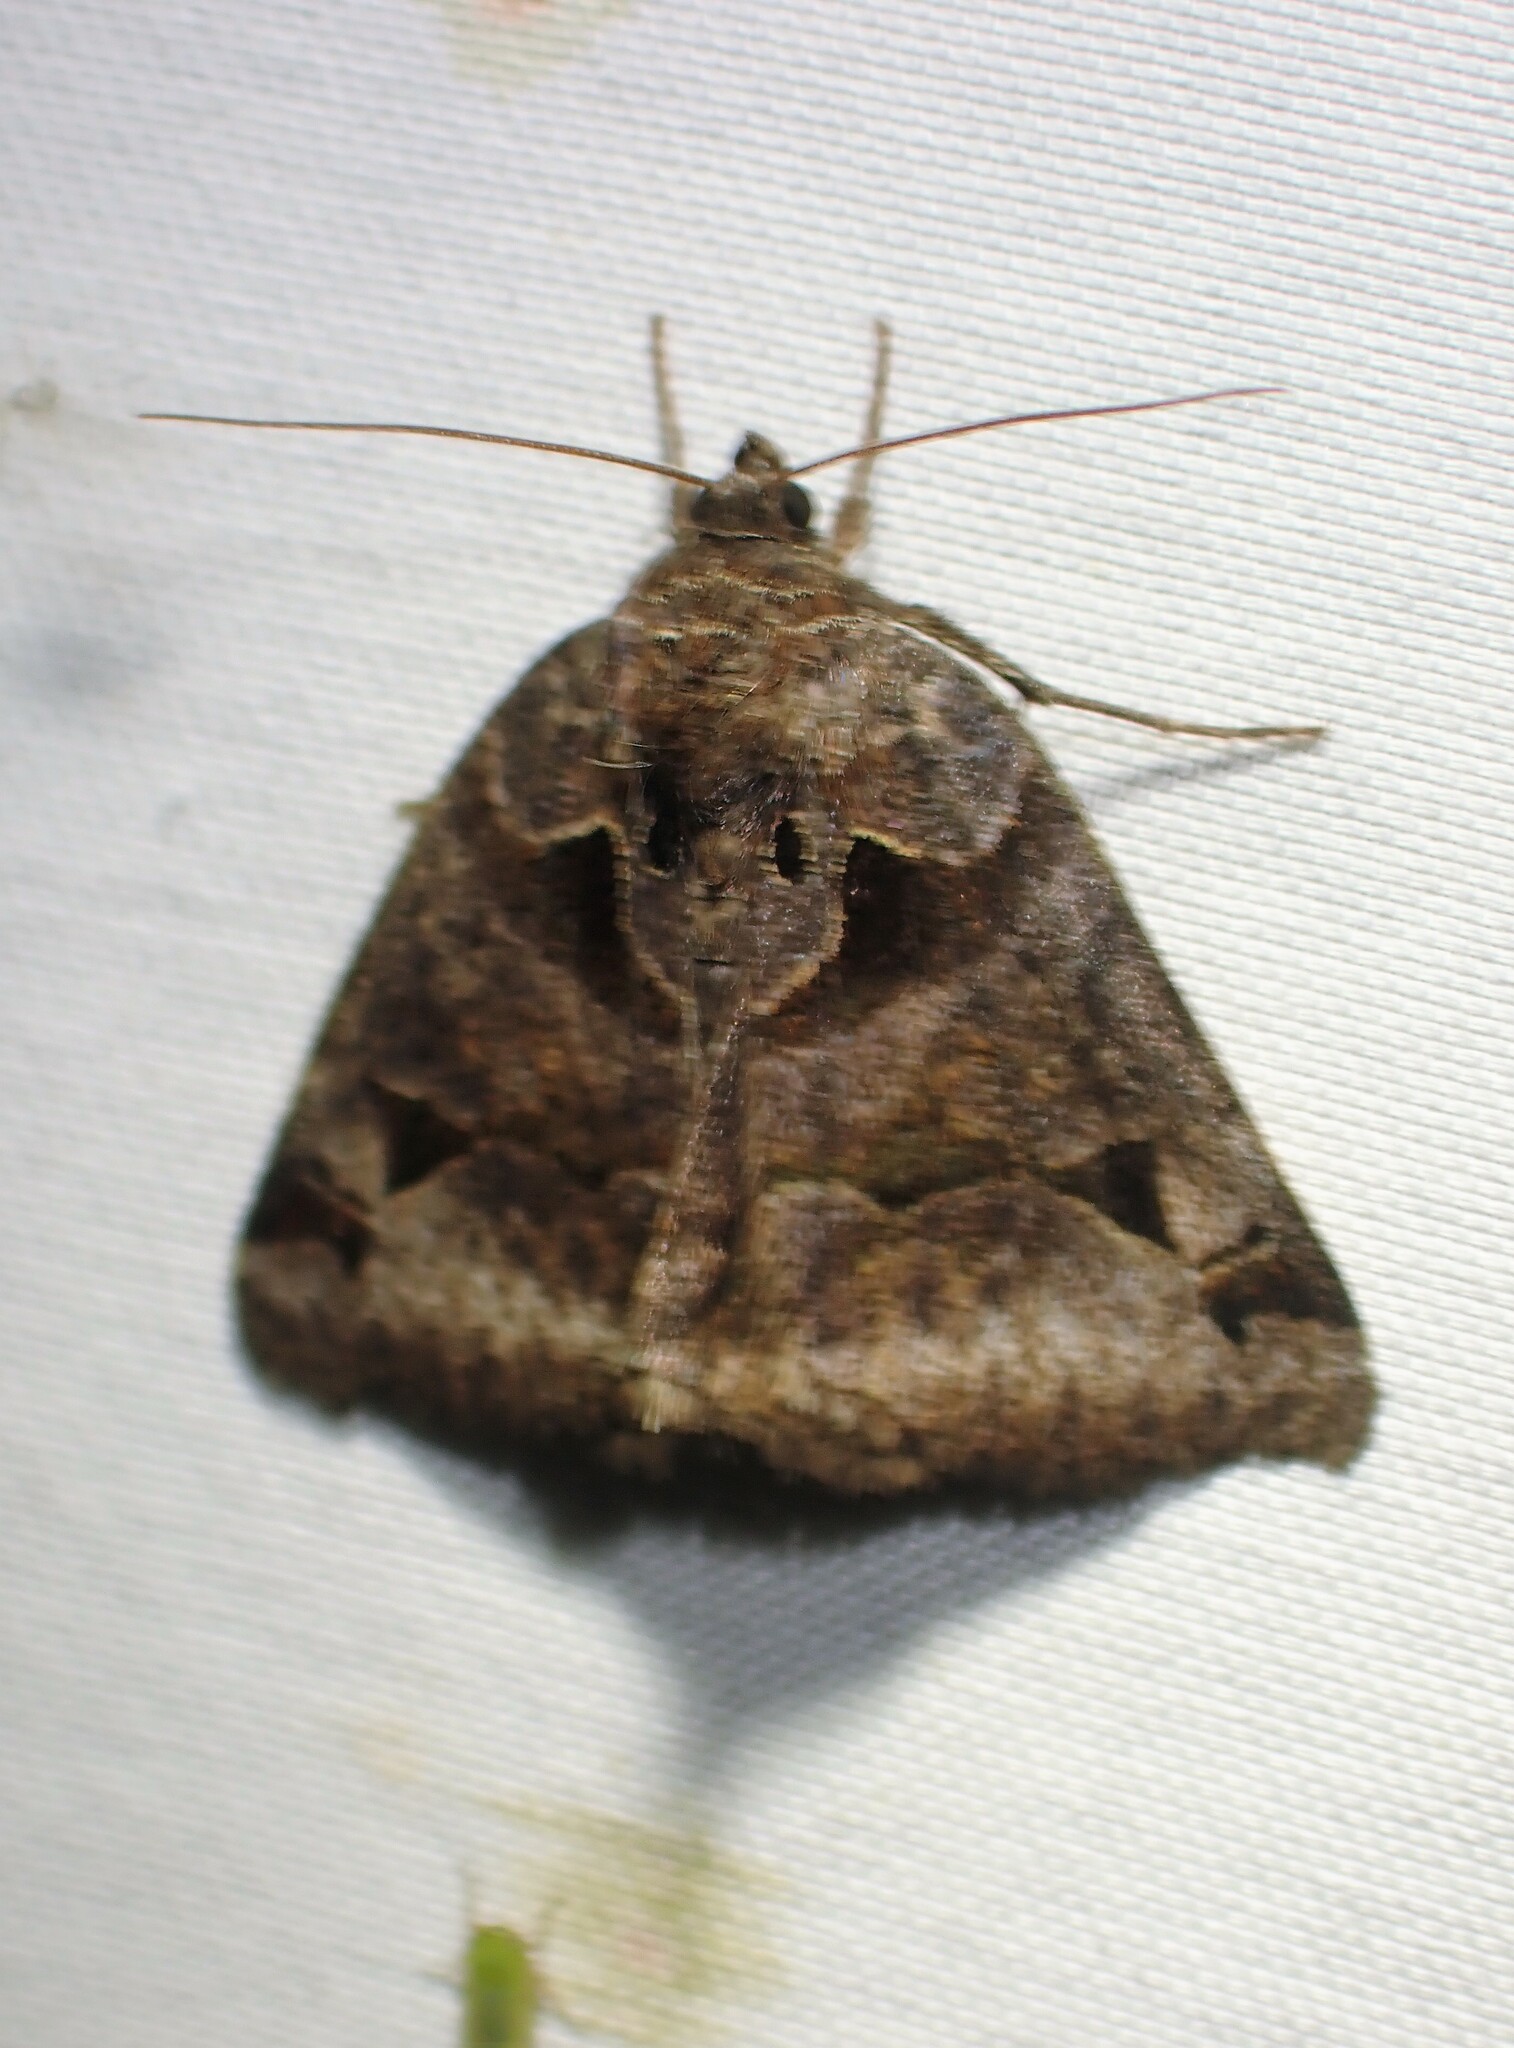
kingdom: Animalia
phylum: Arthropoda
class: Insecta
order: Lepidoptera
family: Erebidae
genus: Euclidia
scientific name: Euclidia cuspidea
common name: Toothed somberwing
